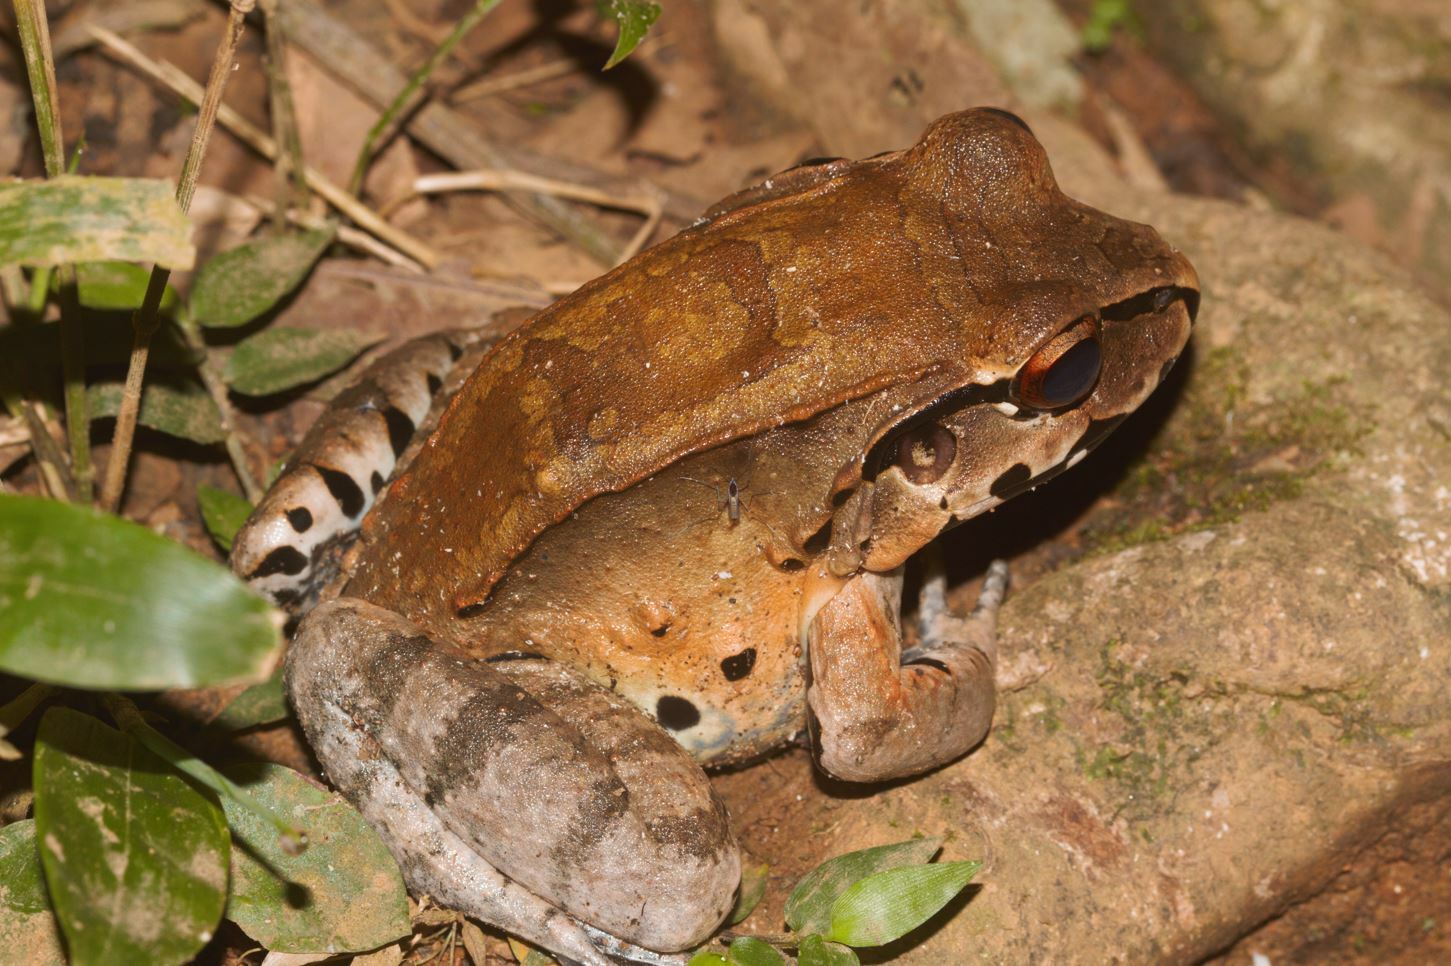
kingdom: Animalia
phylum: Chordata
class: Amphibia
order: Anura
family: Leptodactylidae
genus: Leptodactylus
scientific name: Leptodactylus pentadactylus
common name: Smoky jungle frog
